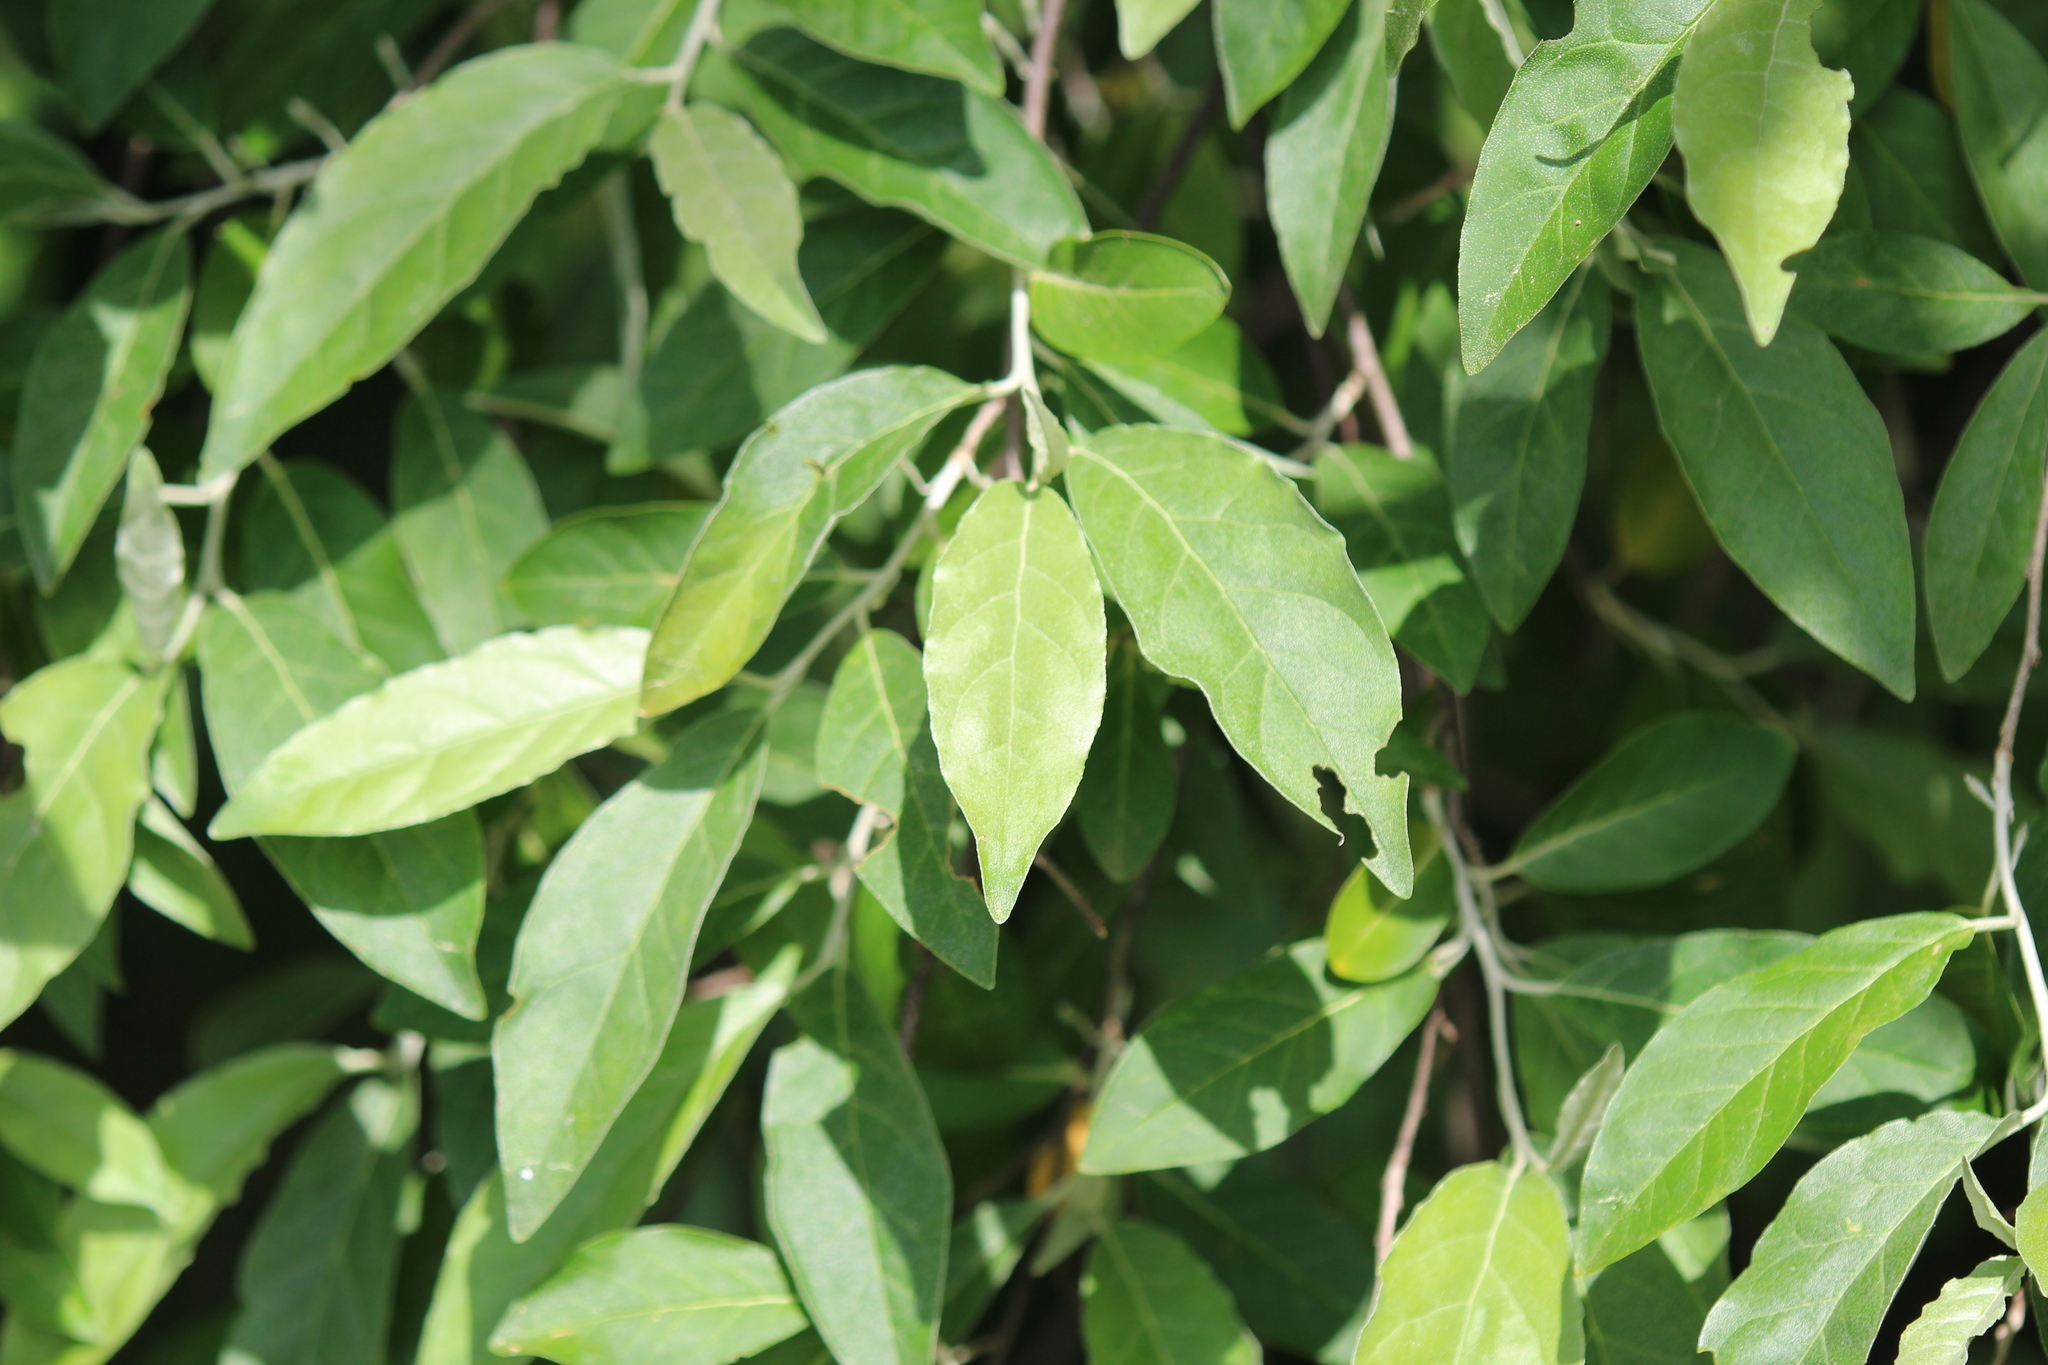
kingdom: Plantae
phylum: Tracheophyta
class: Magnoliopsida
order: Rosales
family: Elaeagnaceae
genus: Elaeagnus
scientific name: Elaeagnus umbellata
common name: Autumn olive
